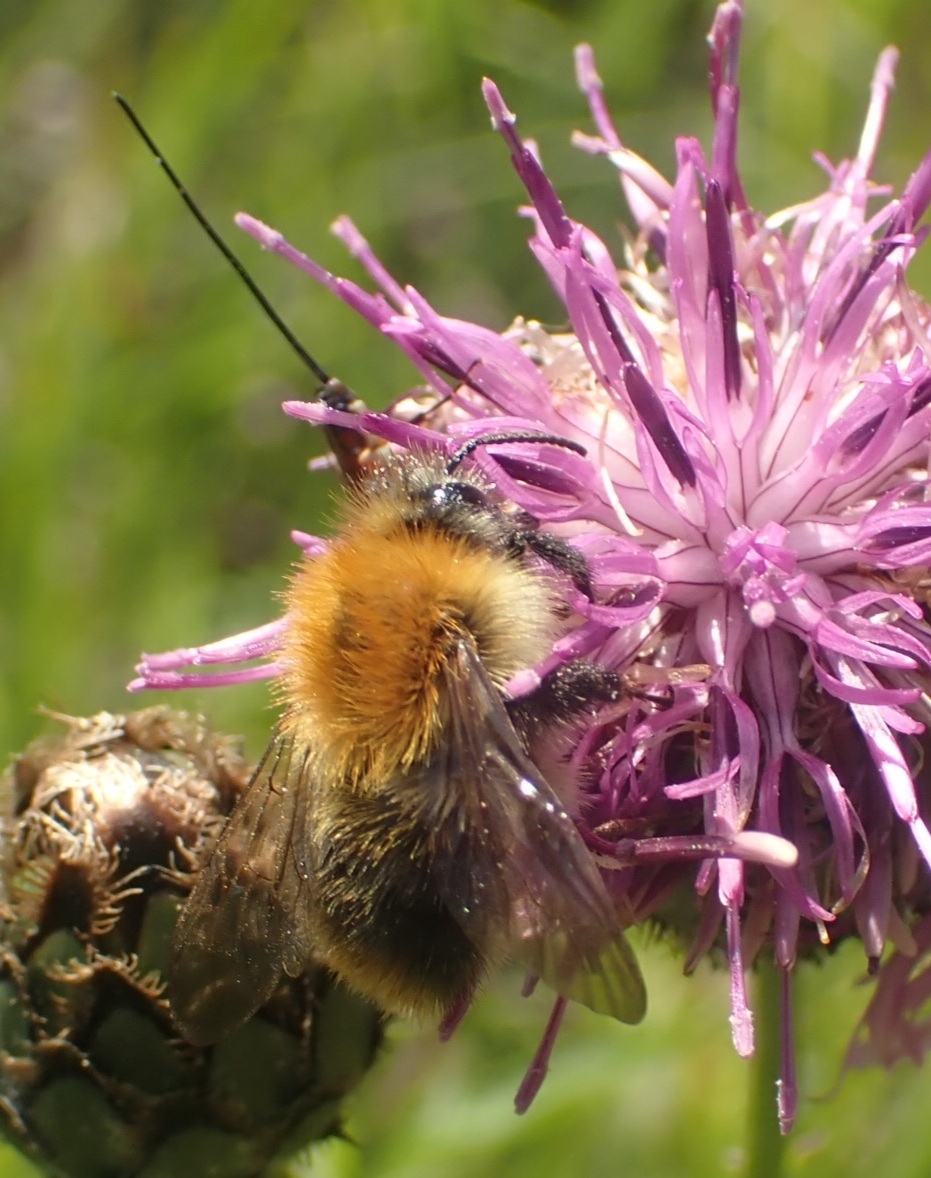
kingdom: Animalia
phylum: Arthropoda
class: Insecta
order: Hymenoptera
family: Apidae
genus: Bombus
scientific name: Bombus pascuorum
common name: Common carder bee
